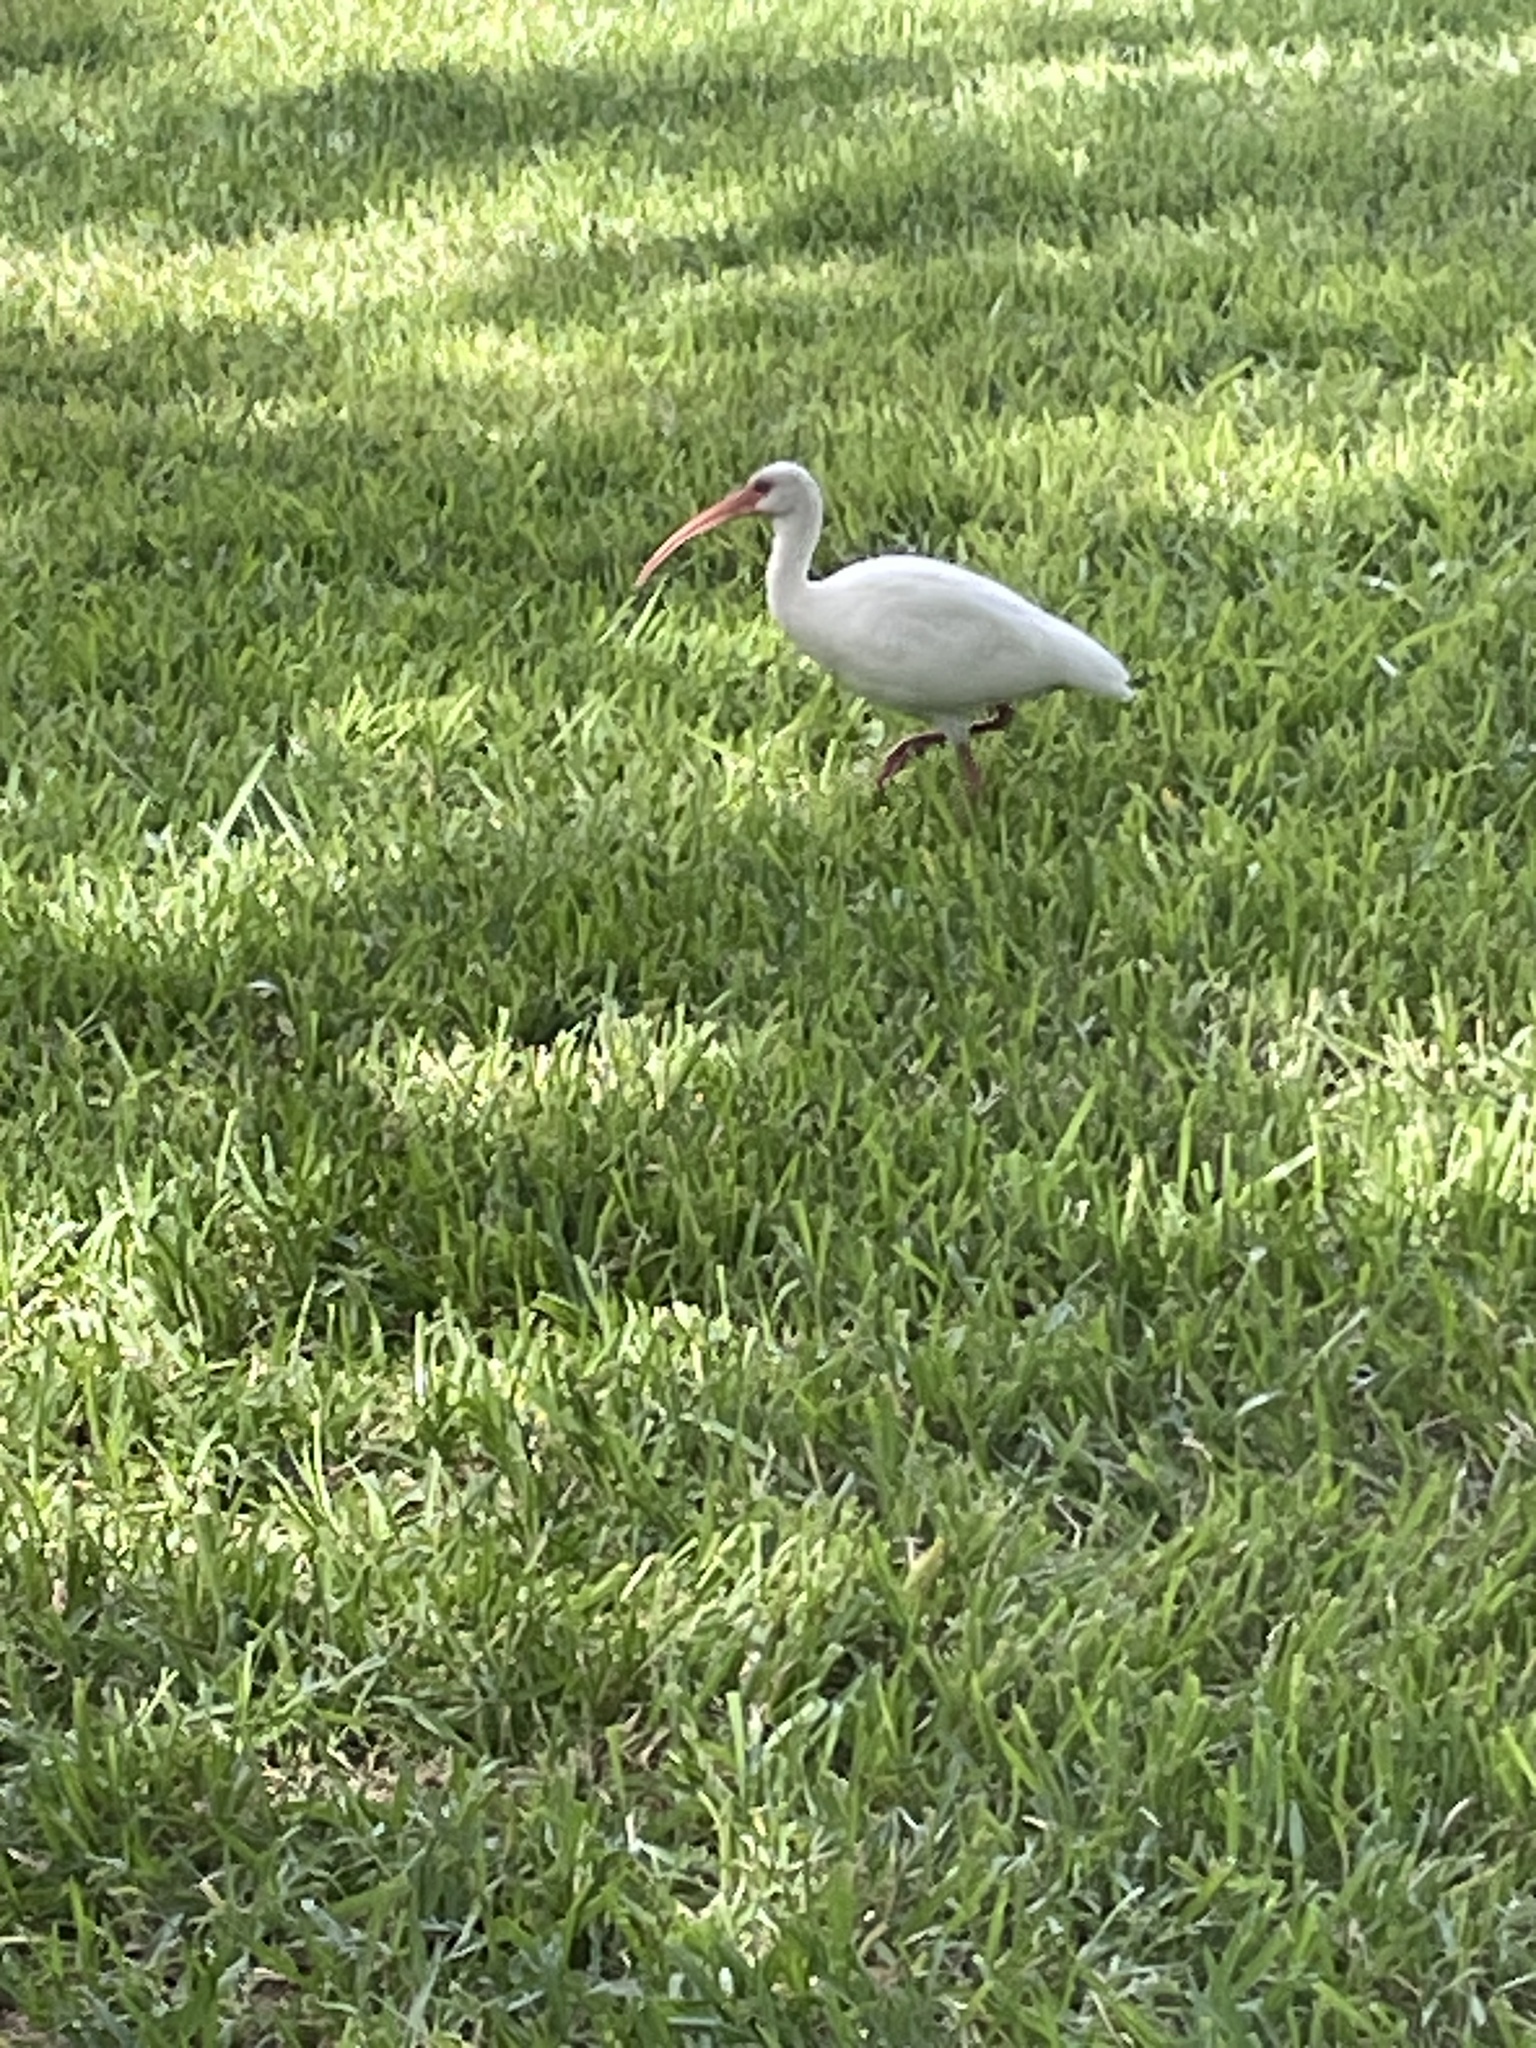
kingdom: Animalia
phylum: Chordata
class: Aves
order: Pelecaniformes
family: Threskiornithidae
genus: Eudocimus
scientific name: Eudocimus albus
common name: White ibis
